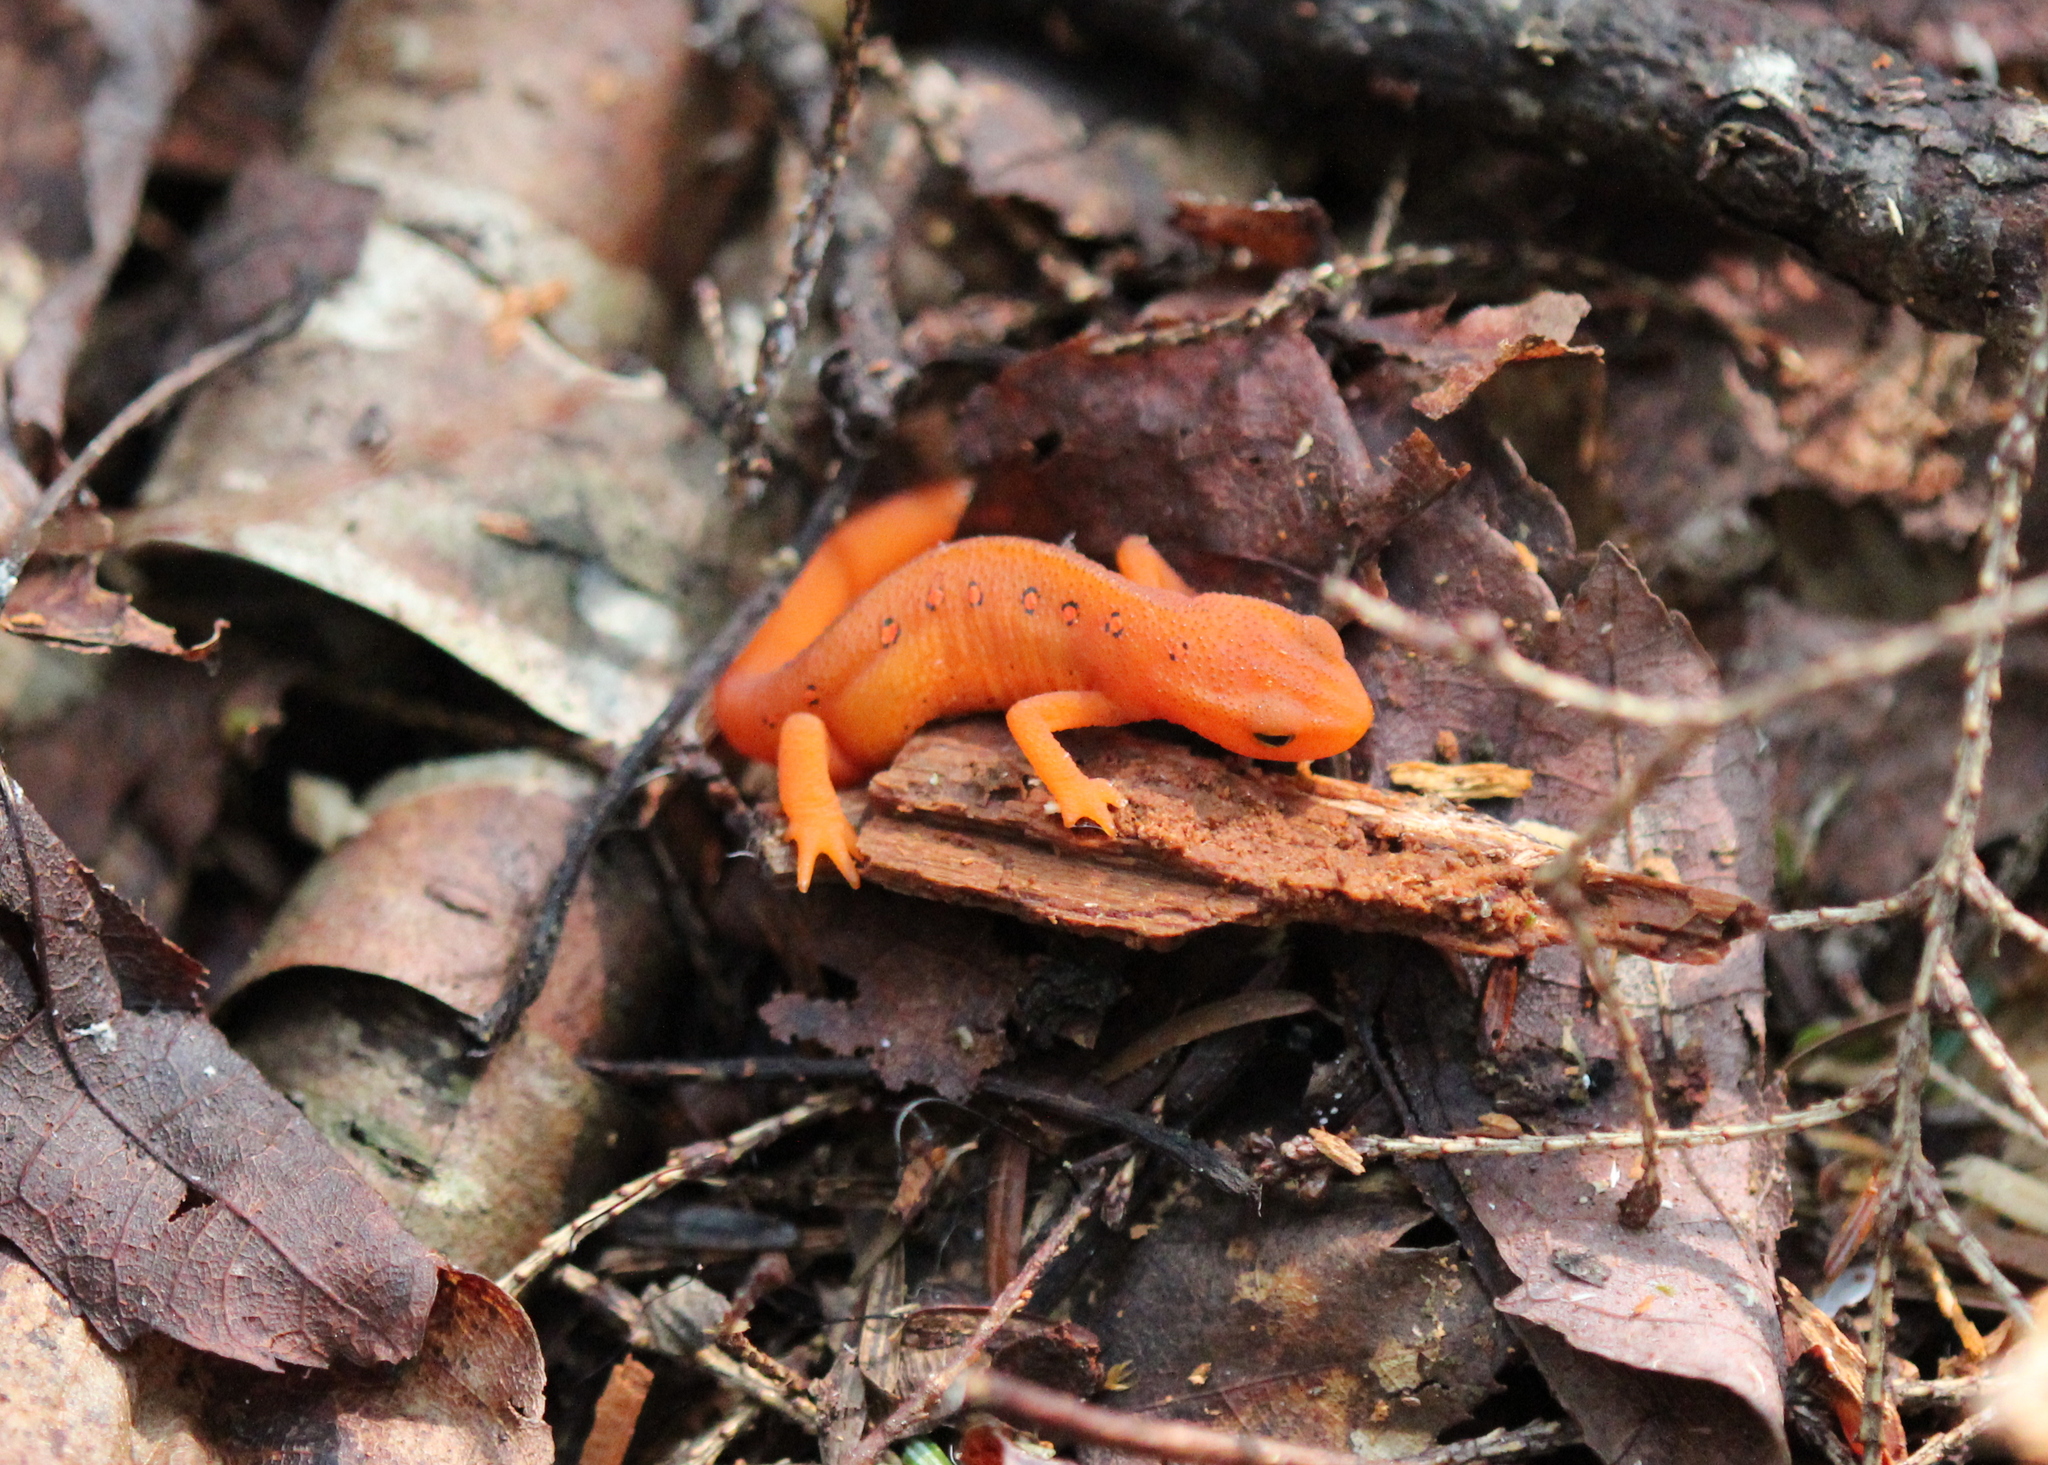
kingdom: Animalia
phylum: Chordata
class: Amphibia
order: Caudata
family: Salamandridae
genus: Notophthalmus
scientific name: Notophthalmus viridescens
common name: Eastern newt
